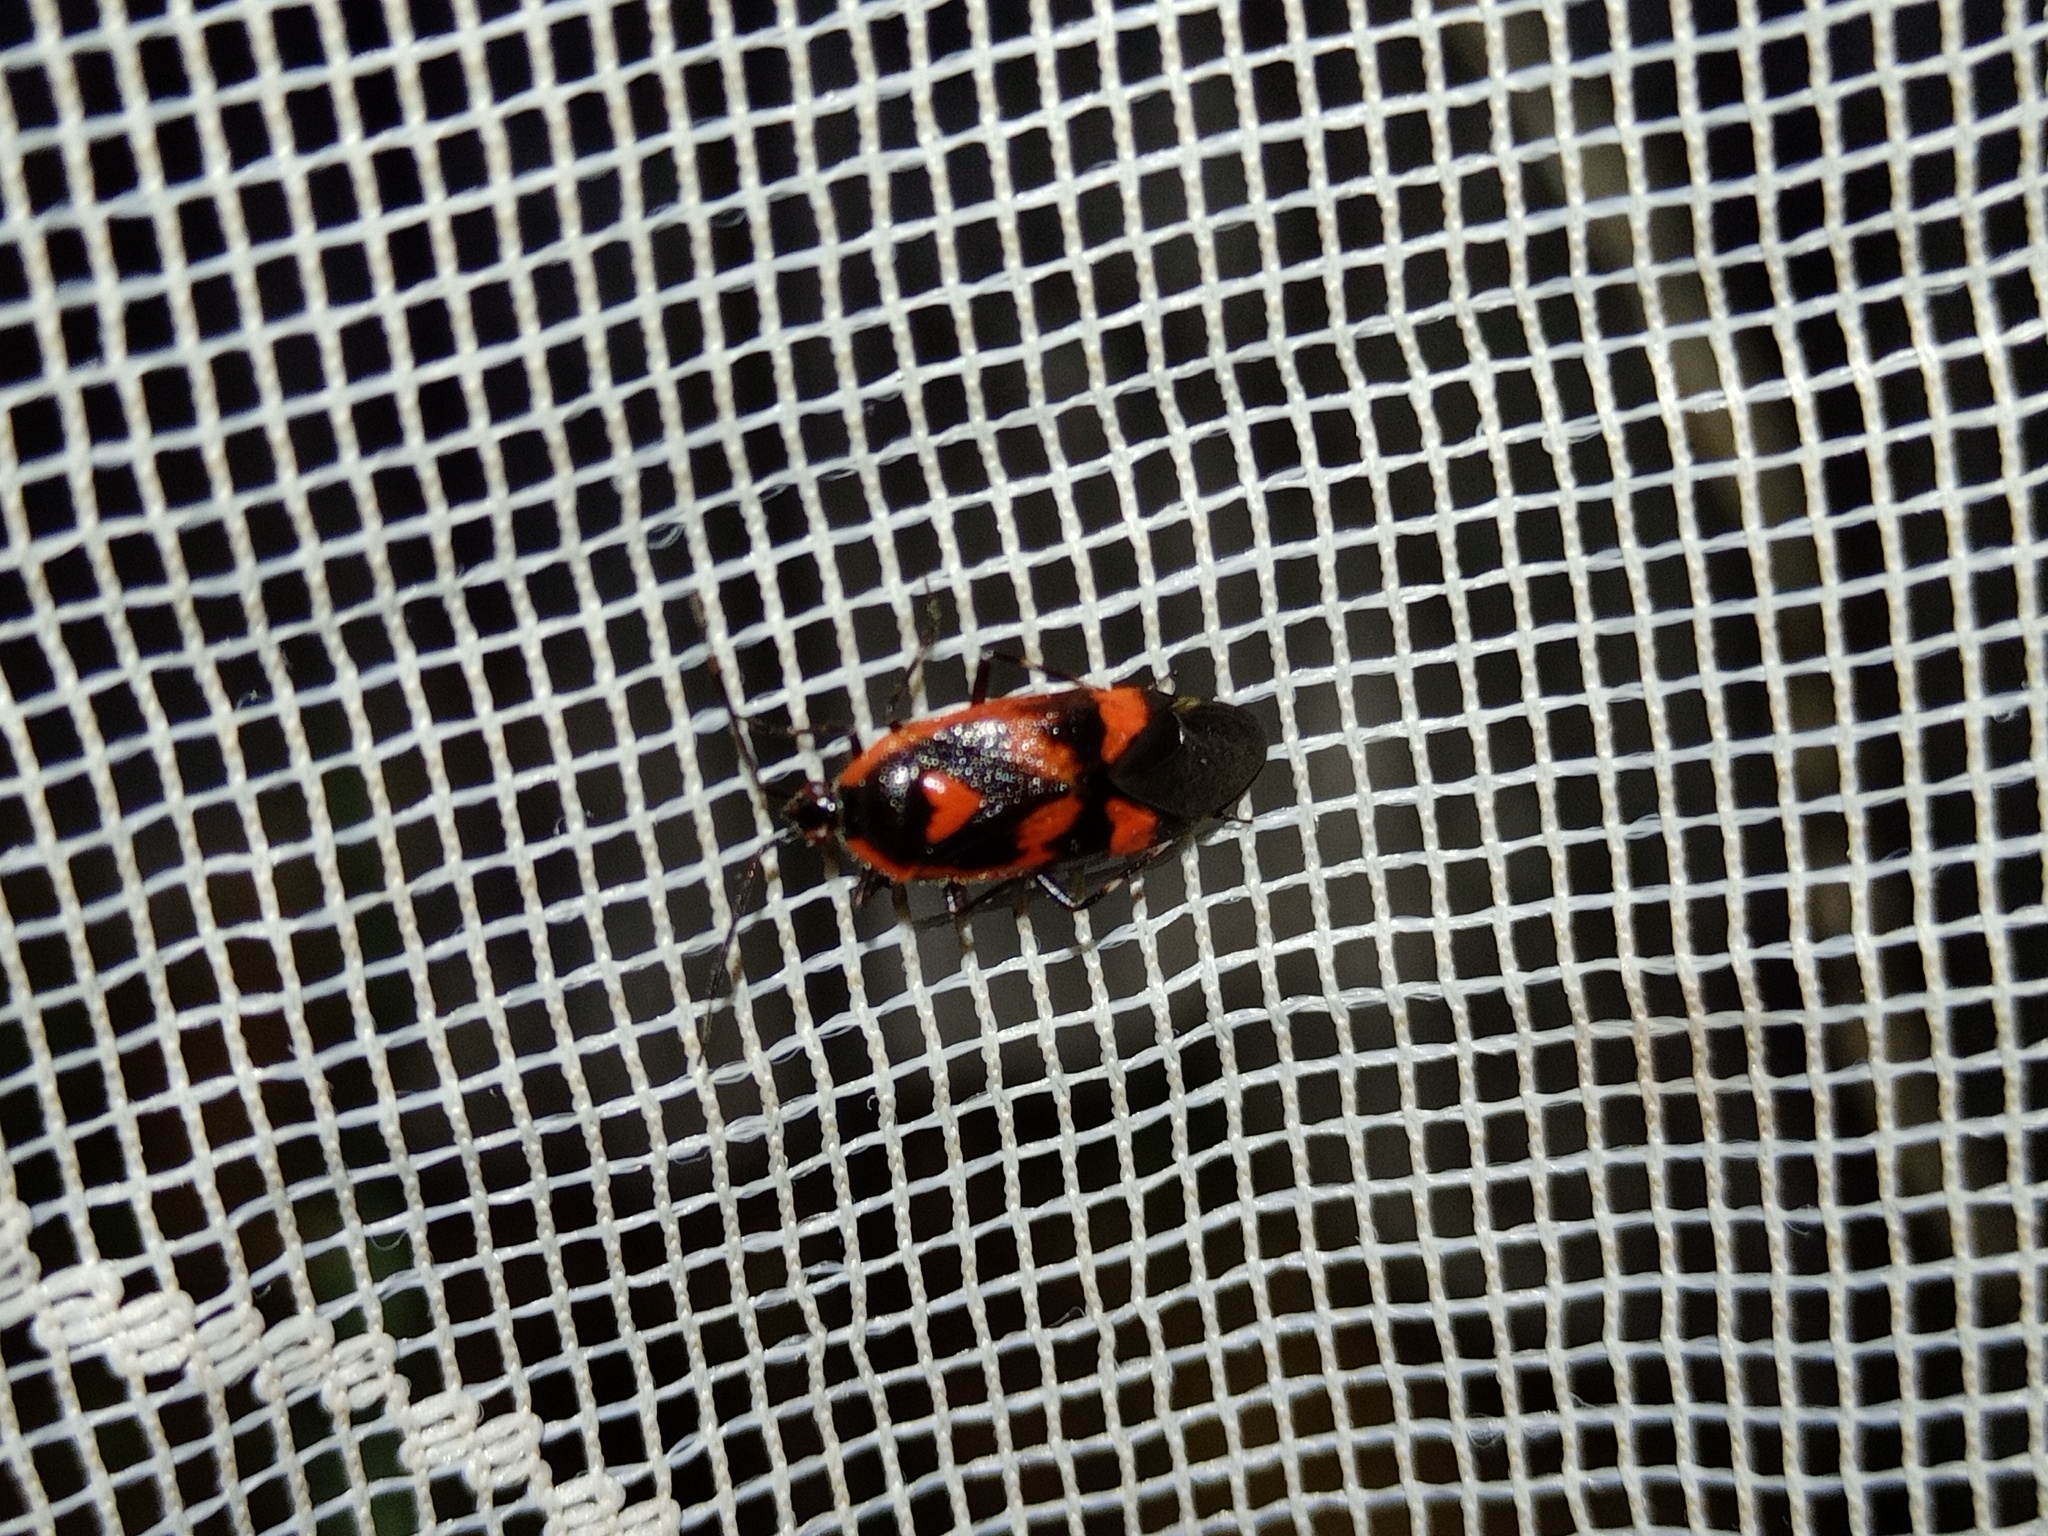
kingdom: Animalia
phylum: Arthropoda
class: Insecta
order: Hemiptera
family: Miridae
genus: Deraeocoris
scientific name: Deraeocoris trifasciatus
